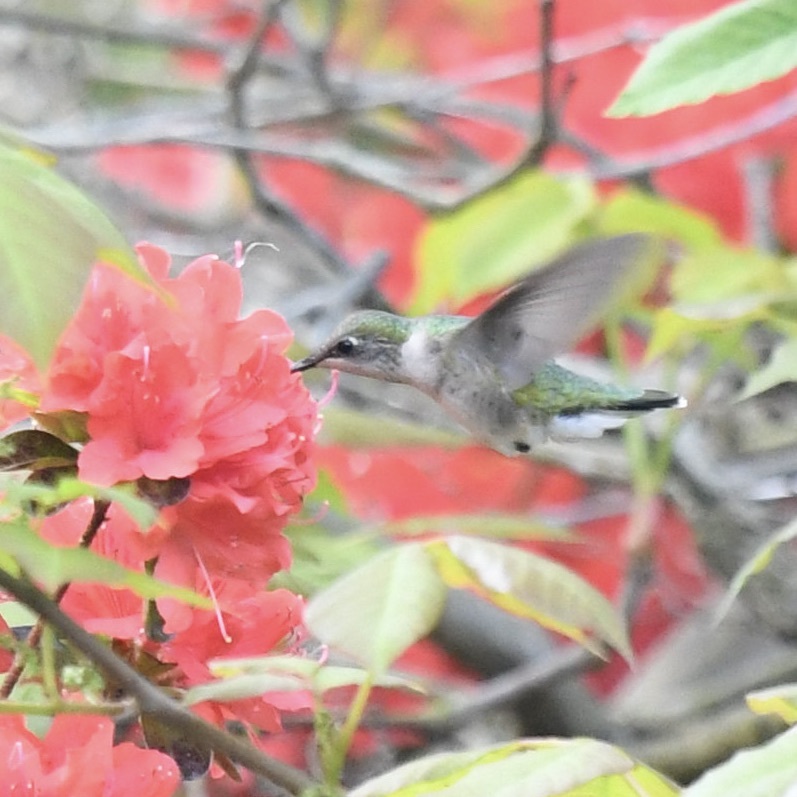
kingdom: Animalia
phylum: Chordata
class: Aves
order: Apodiformes
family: Trochilidae
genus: Archilochus
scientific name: Archilochus colubris
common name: Ruby-throated hummingbird
